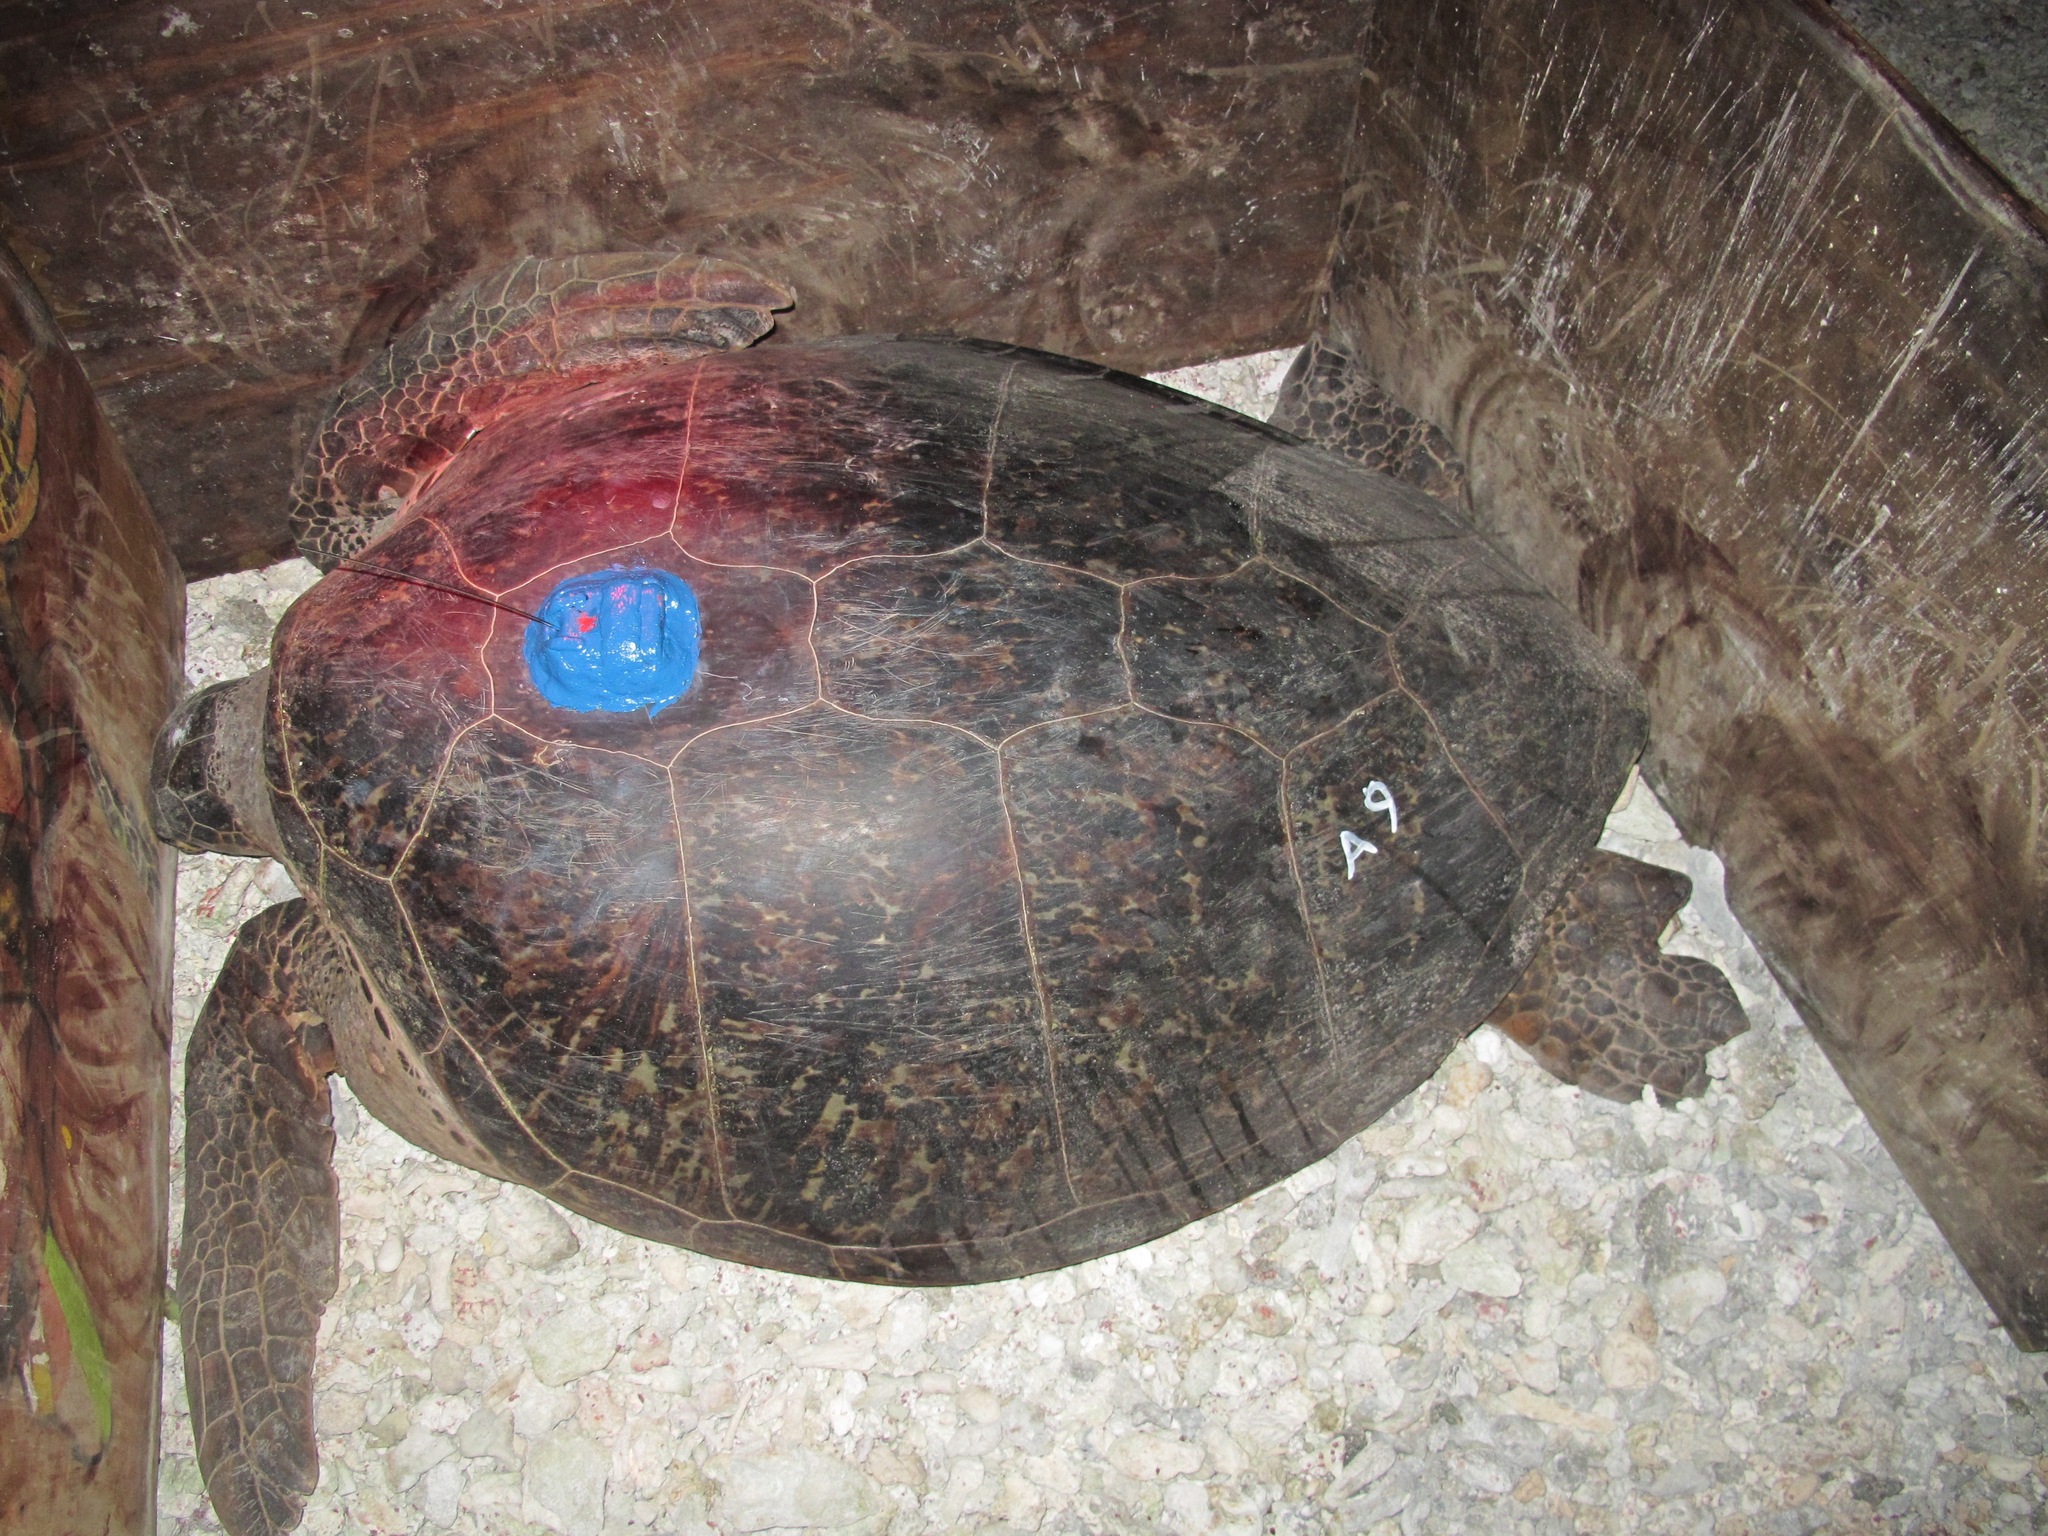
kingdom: Animalia
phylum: Chordata
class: Testudines
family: Cheloniidae
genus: Chelonia
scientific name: Chelonia mydas
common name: Green turtle
